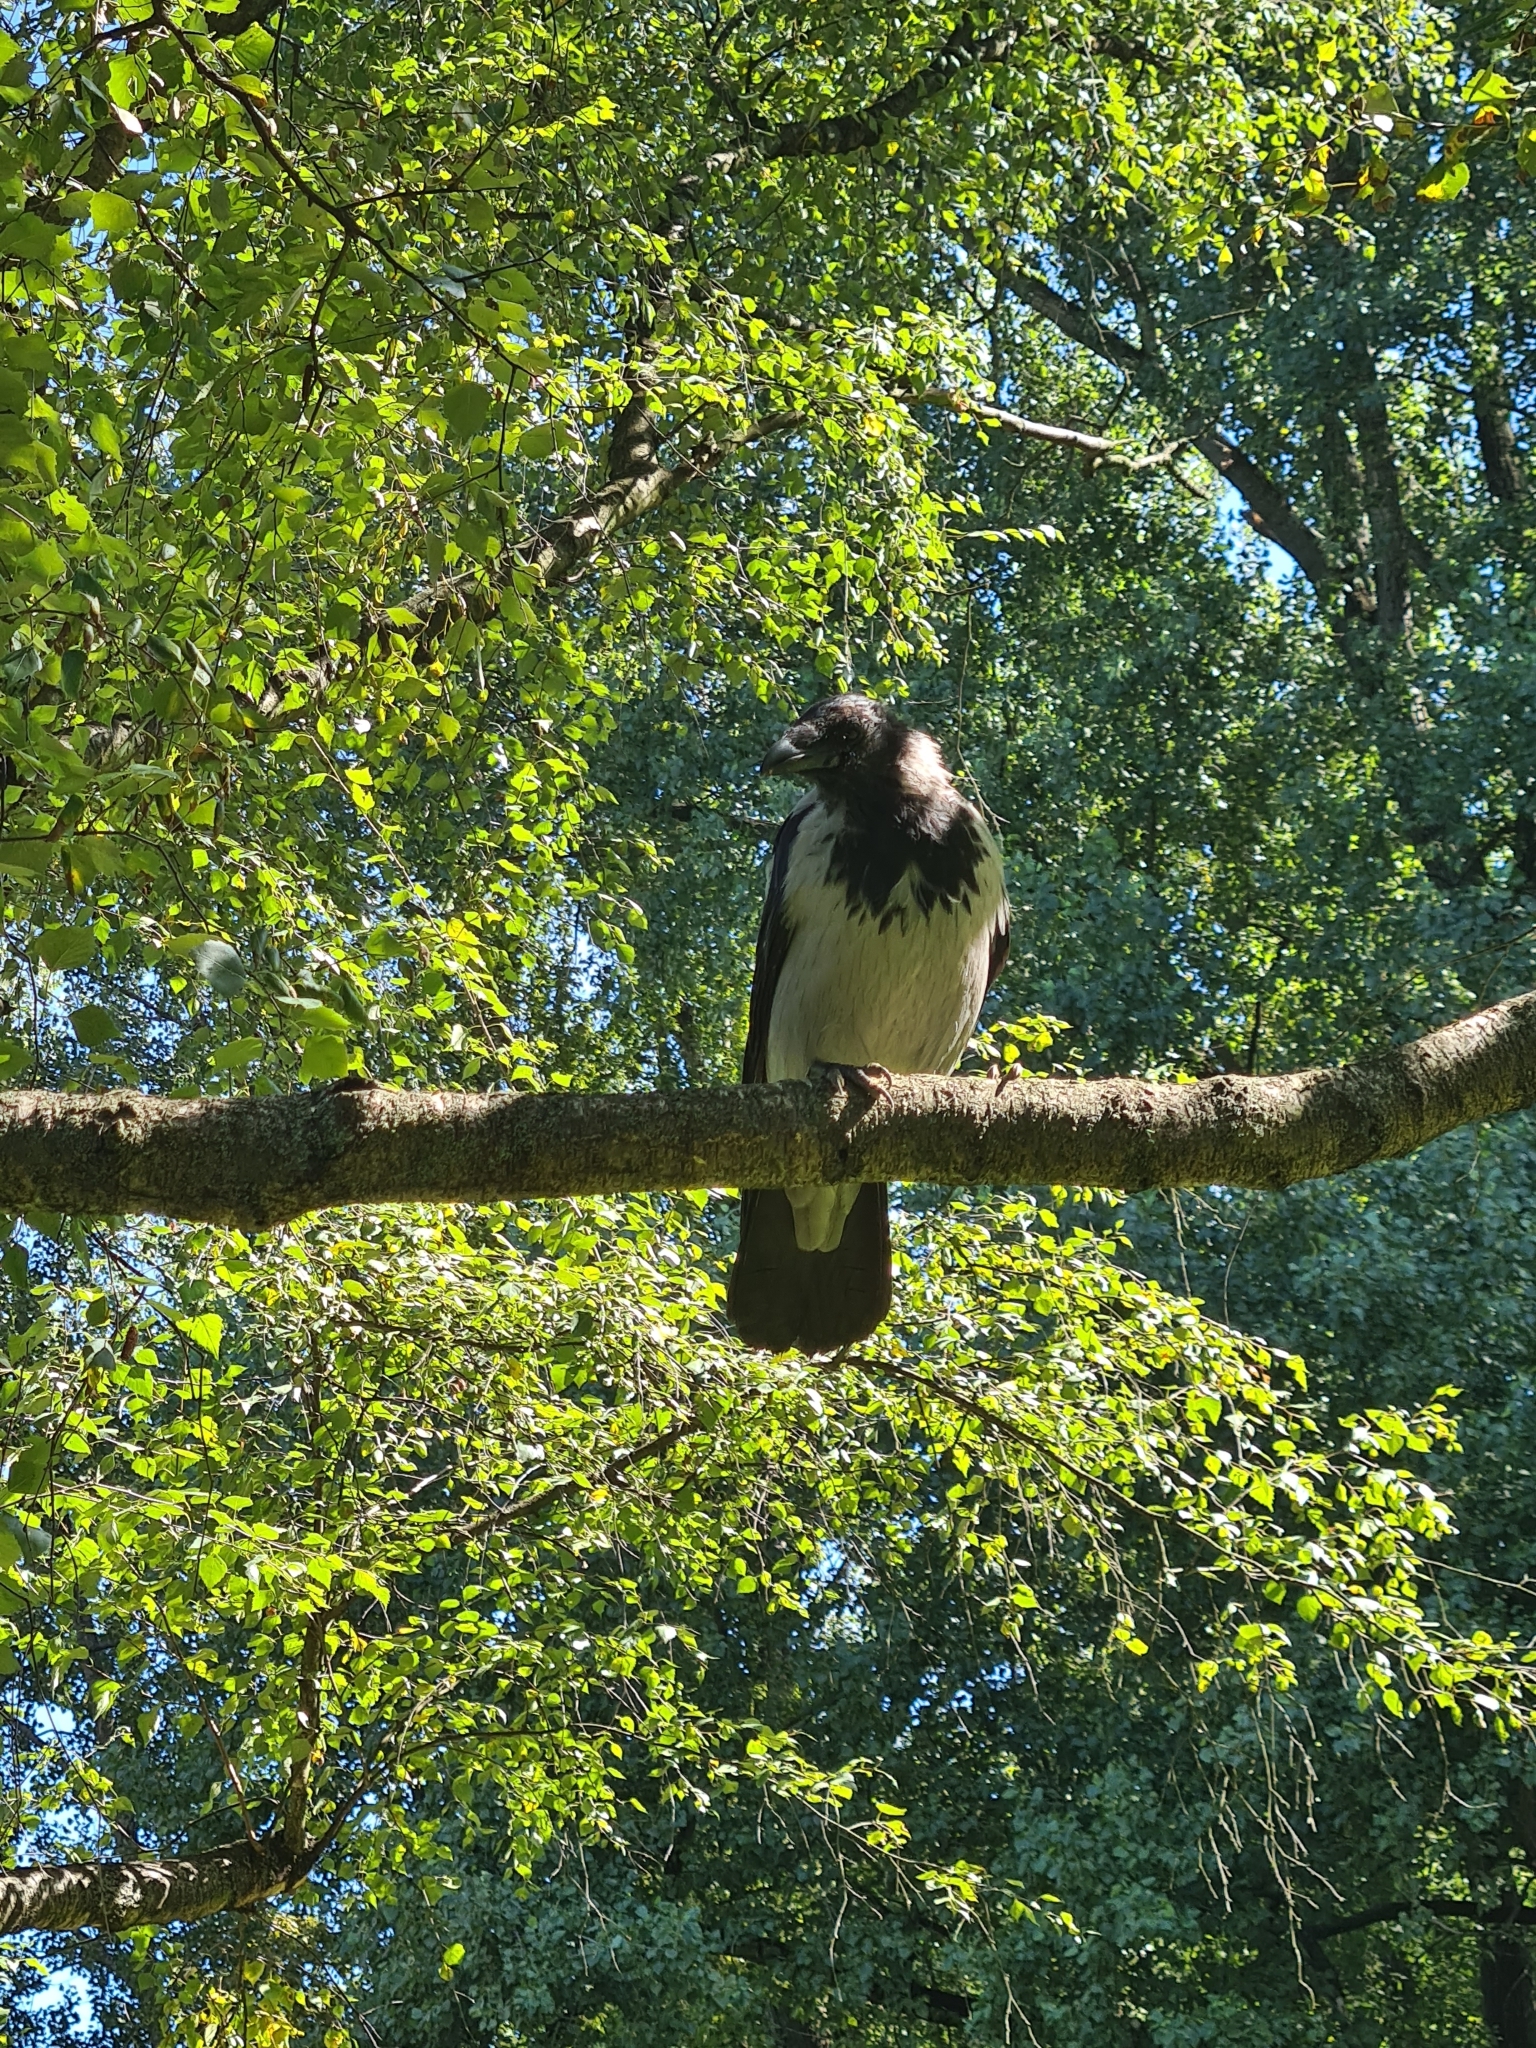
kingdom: Animalia
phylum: Chordata
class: Aves
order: Passeriformes
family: Corvidae
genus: Corvus
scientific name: Corvus cornix
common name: Hooded crow
